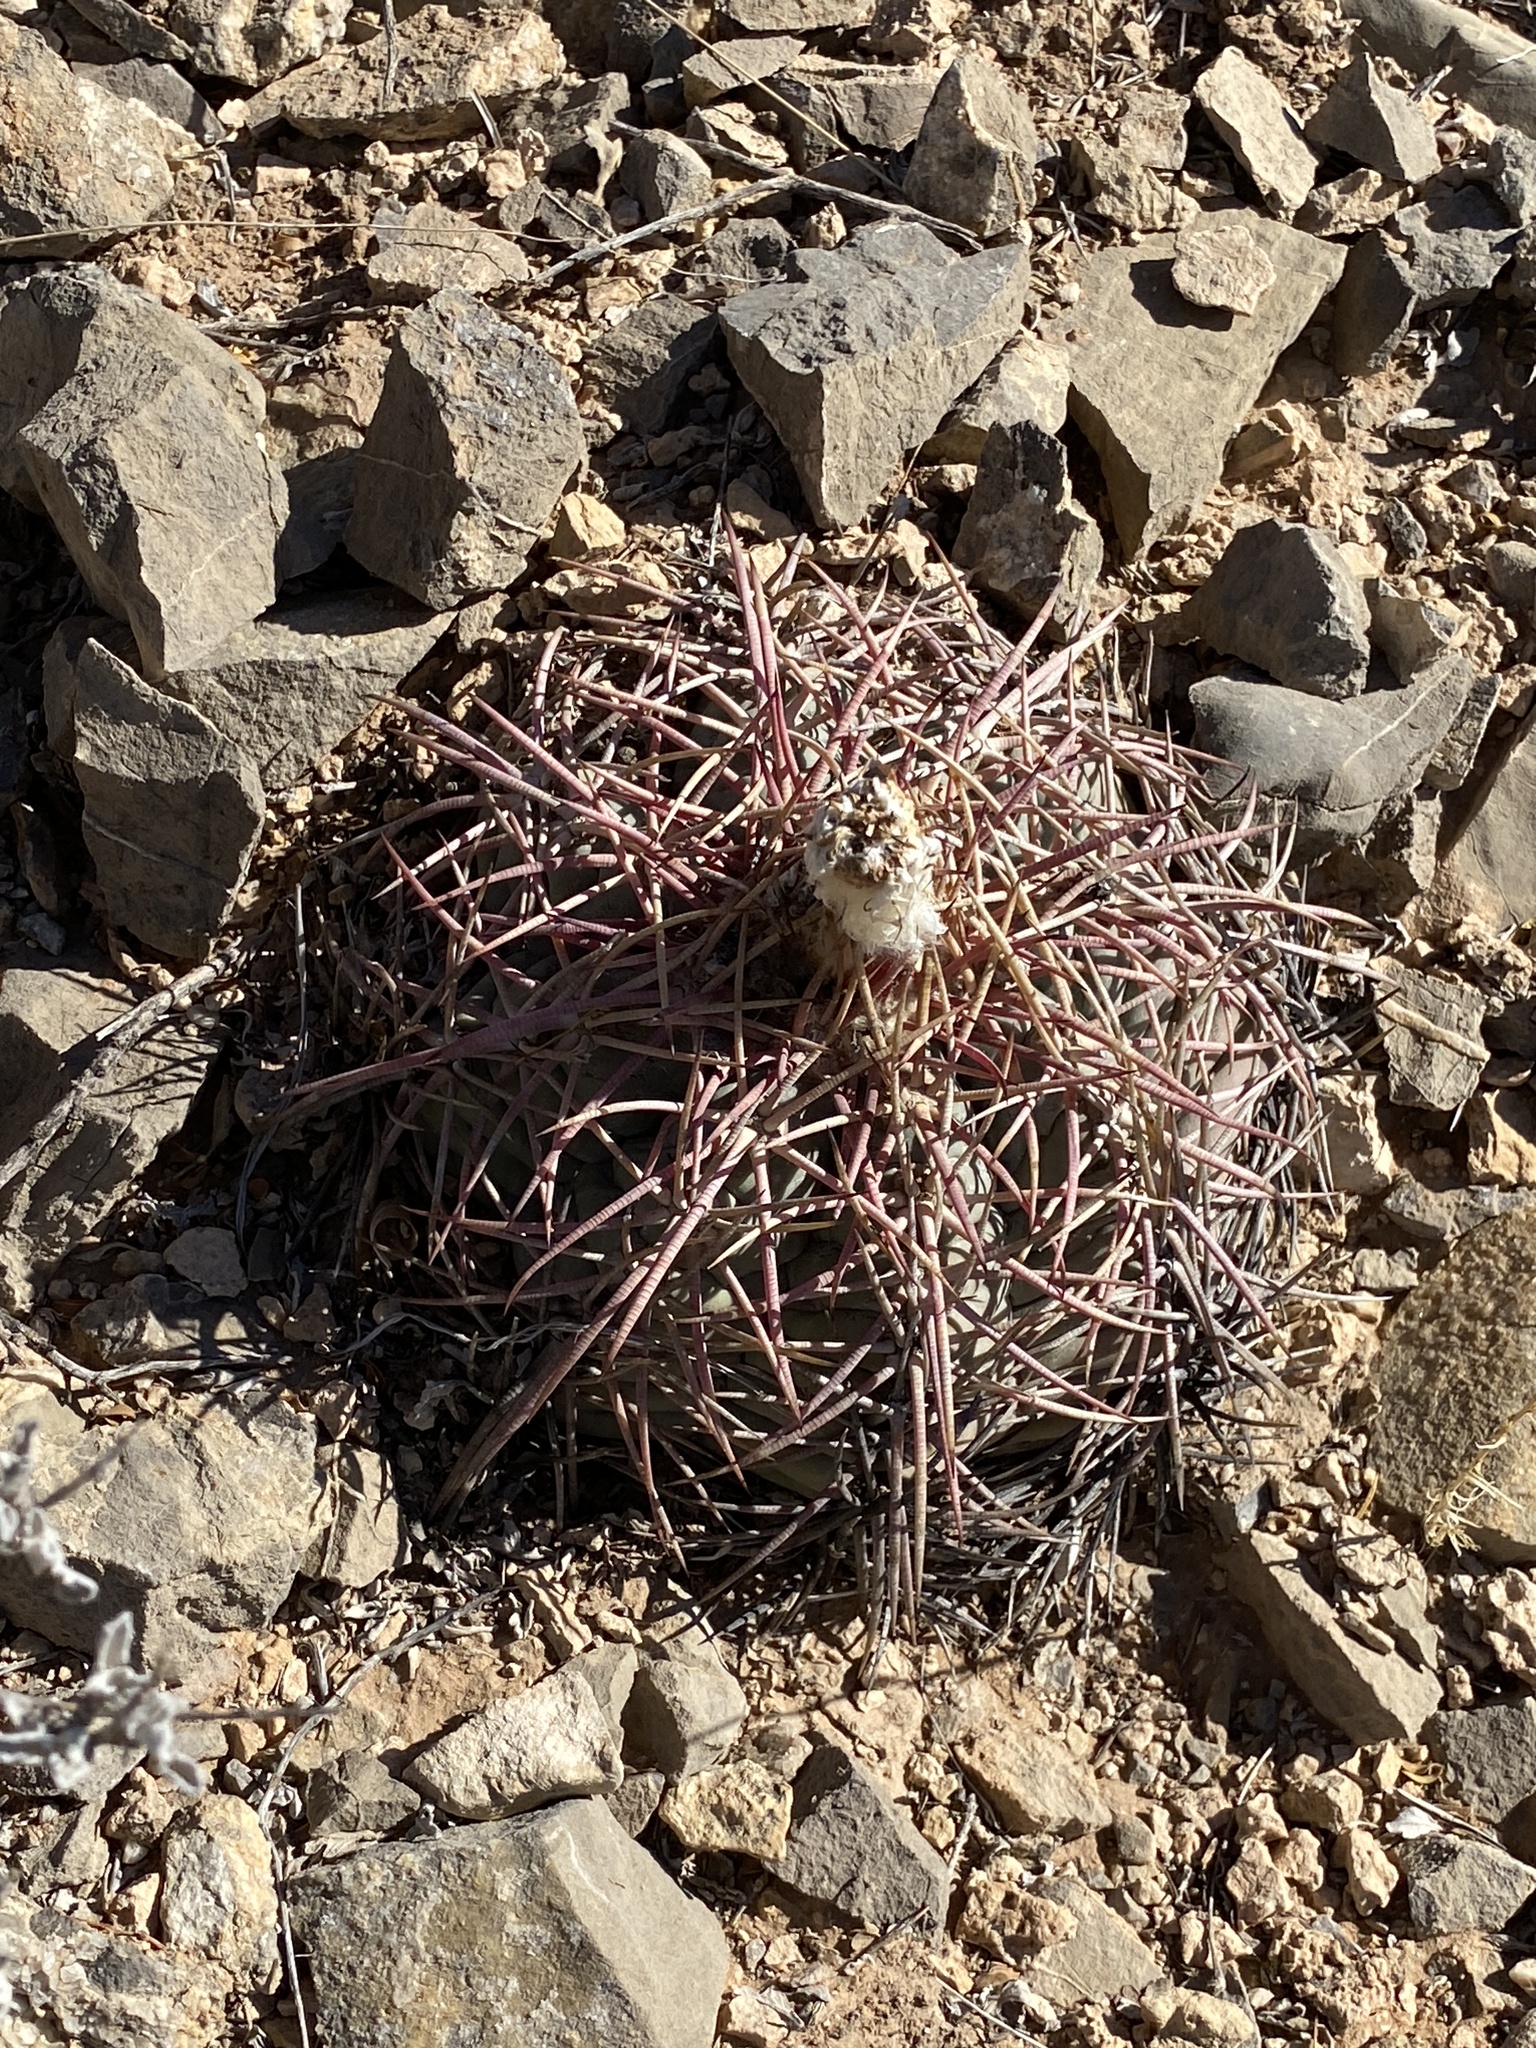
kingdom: Plantae
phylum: Tracheophyta
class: Magnoliopsida
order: Caryophyllales
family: Cactaceae
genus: Echinocactus
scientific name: Echinocactus horizonthalonius
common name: Devilshead
